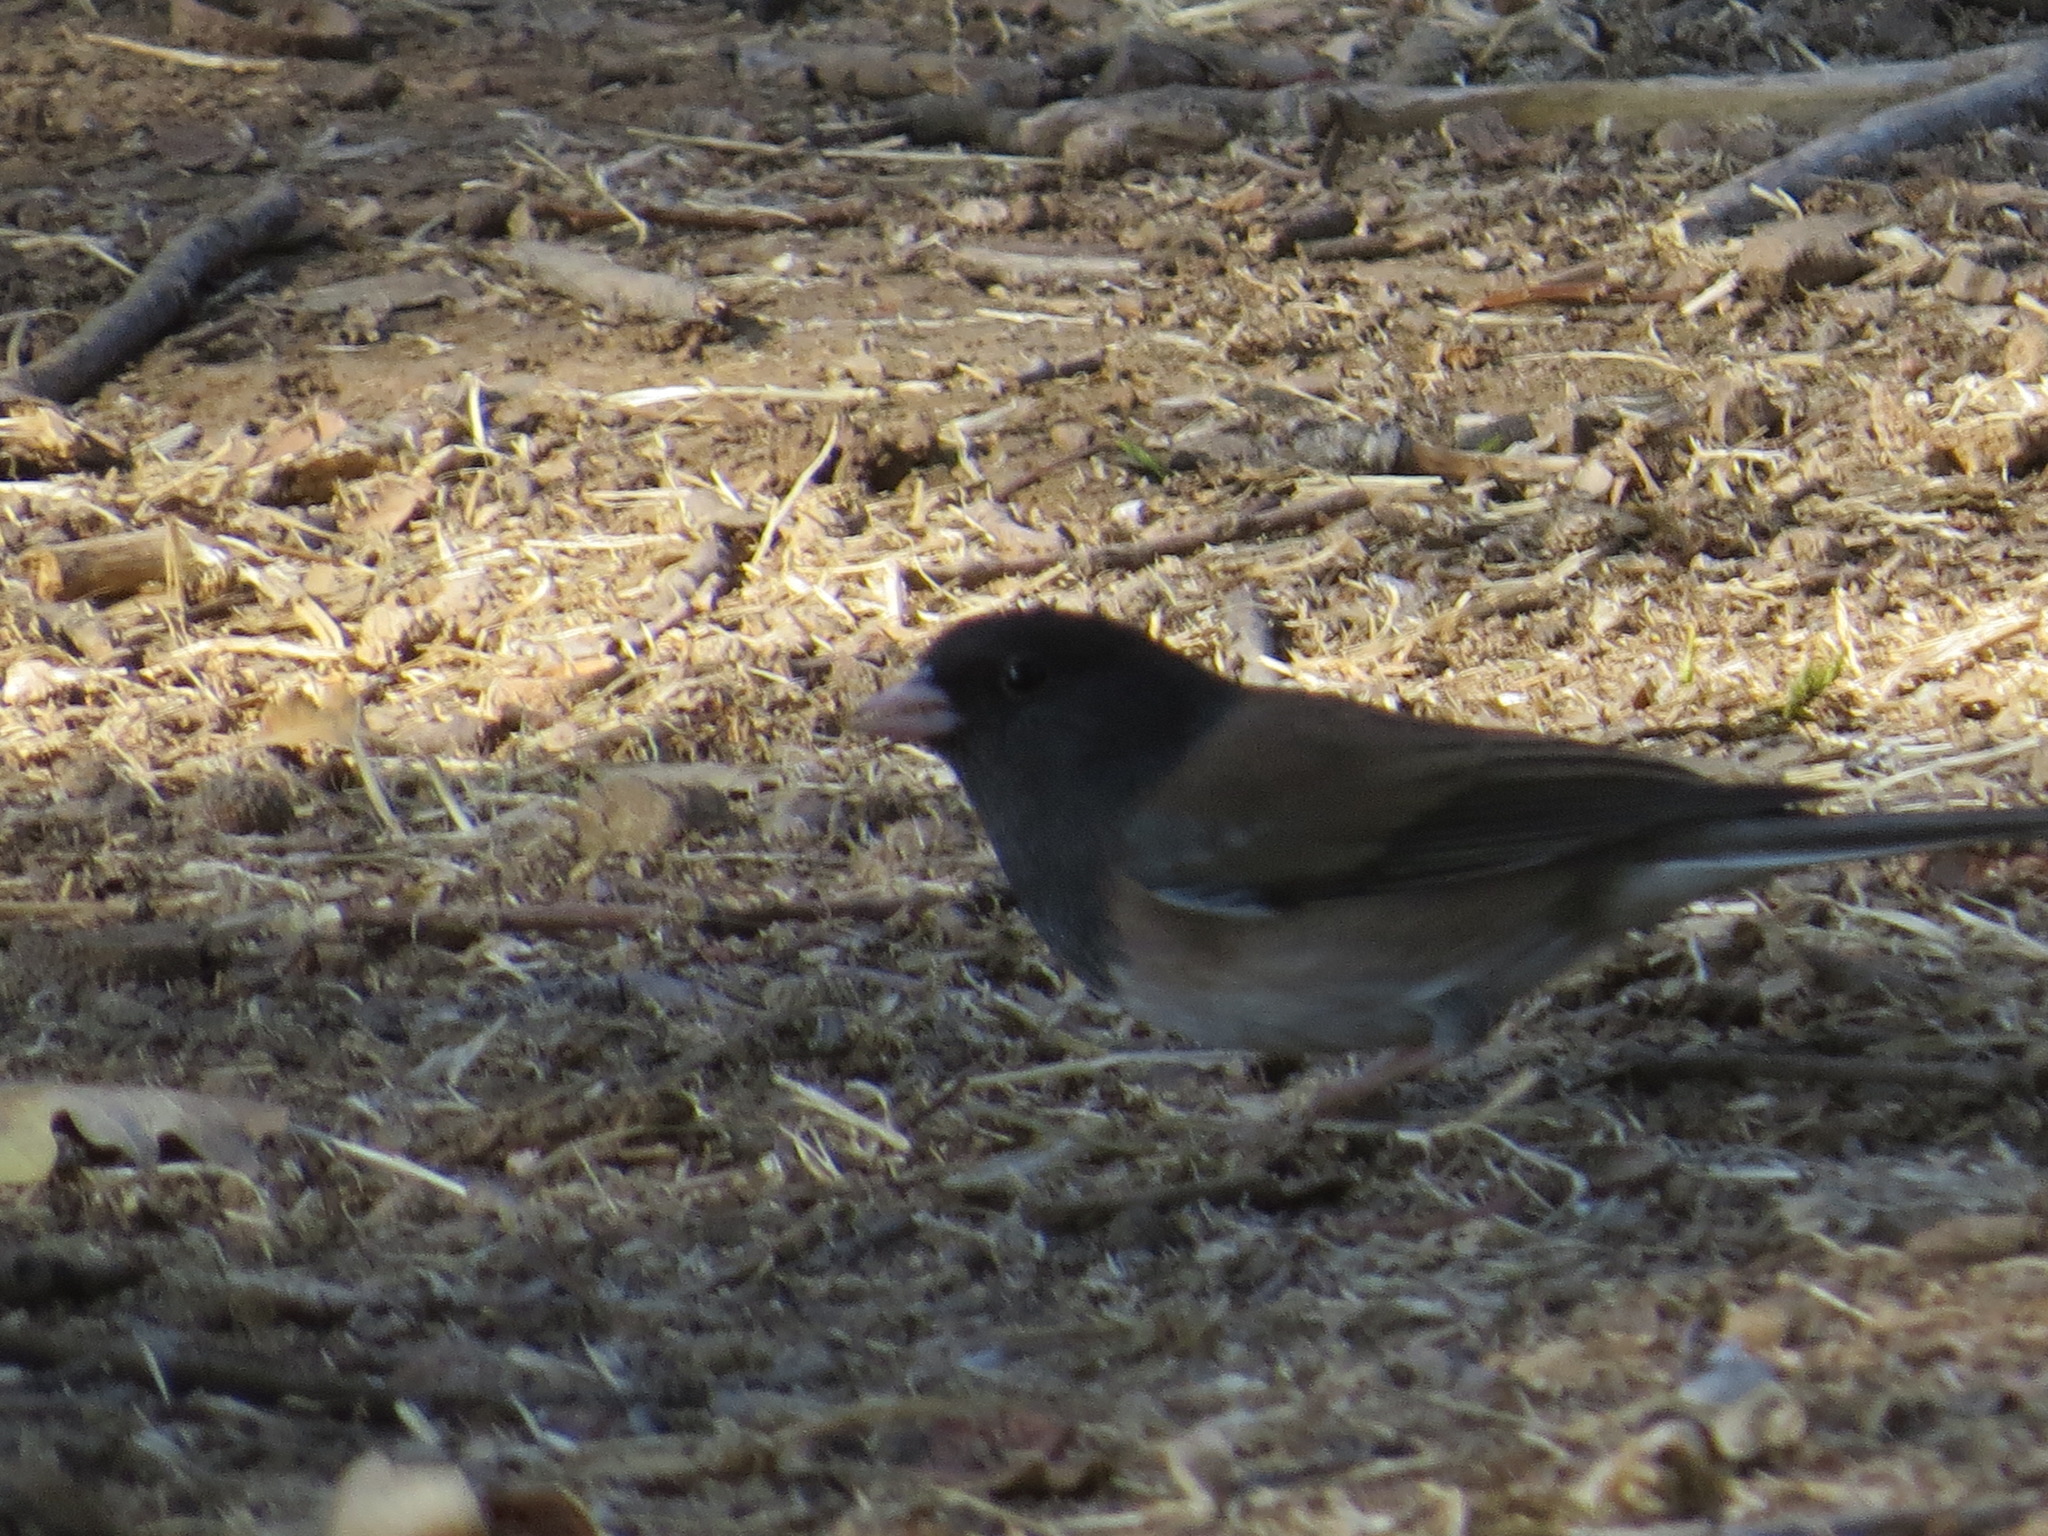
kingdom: Animalia
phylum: Chordata
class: Aves
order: Passeriformes
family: Passerellidae
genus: Junco
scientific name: Junco hyemalis
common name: Dark-eyed junco
